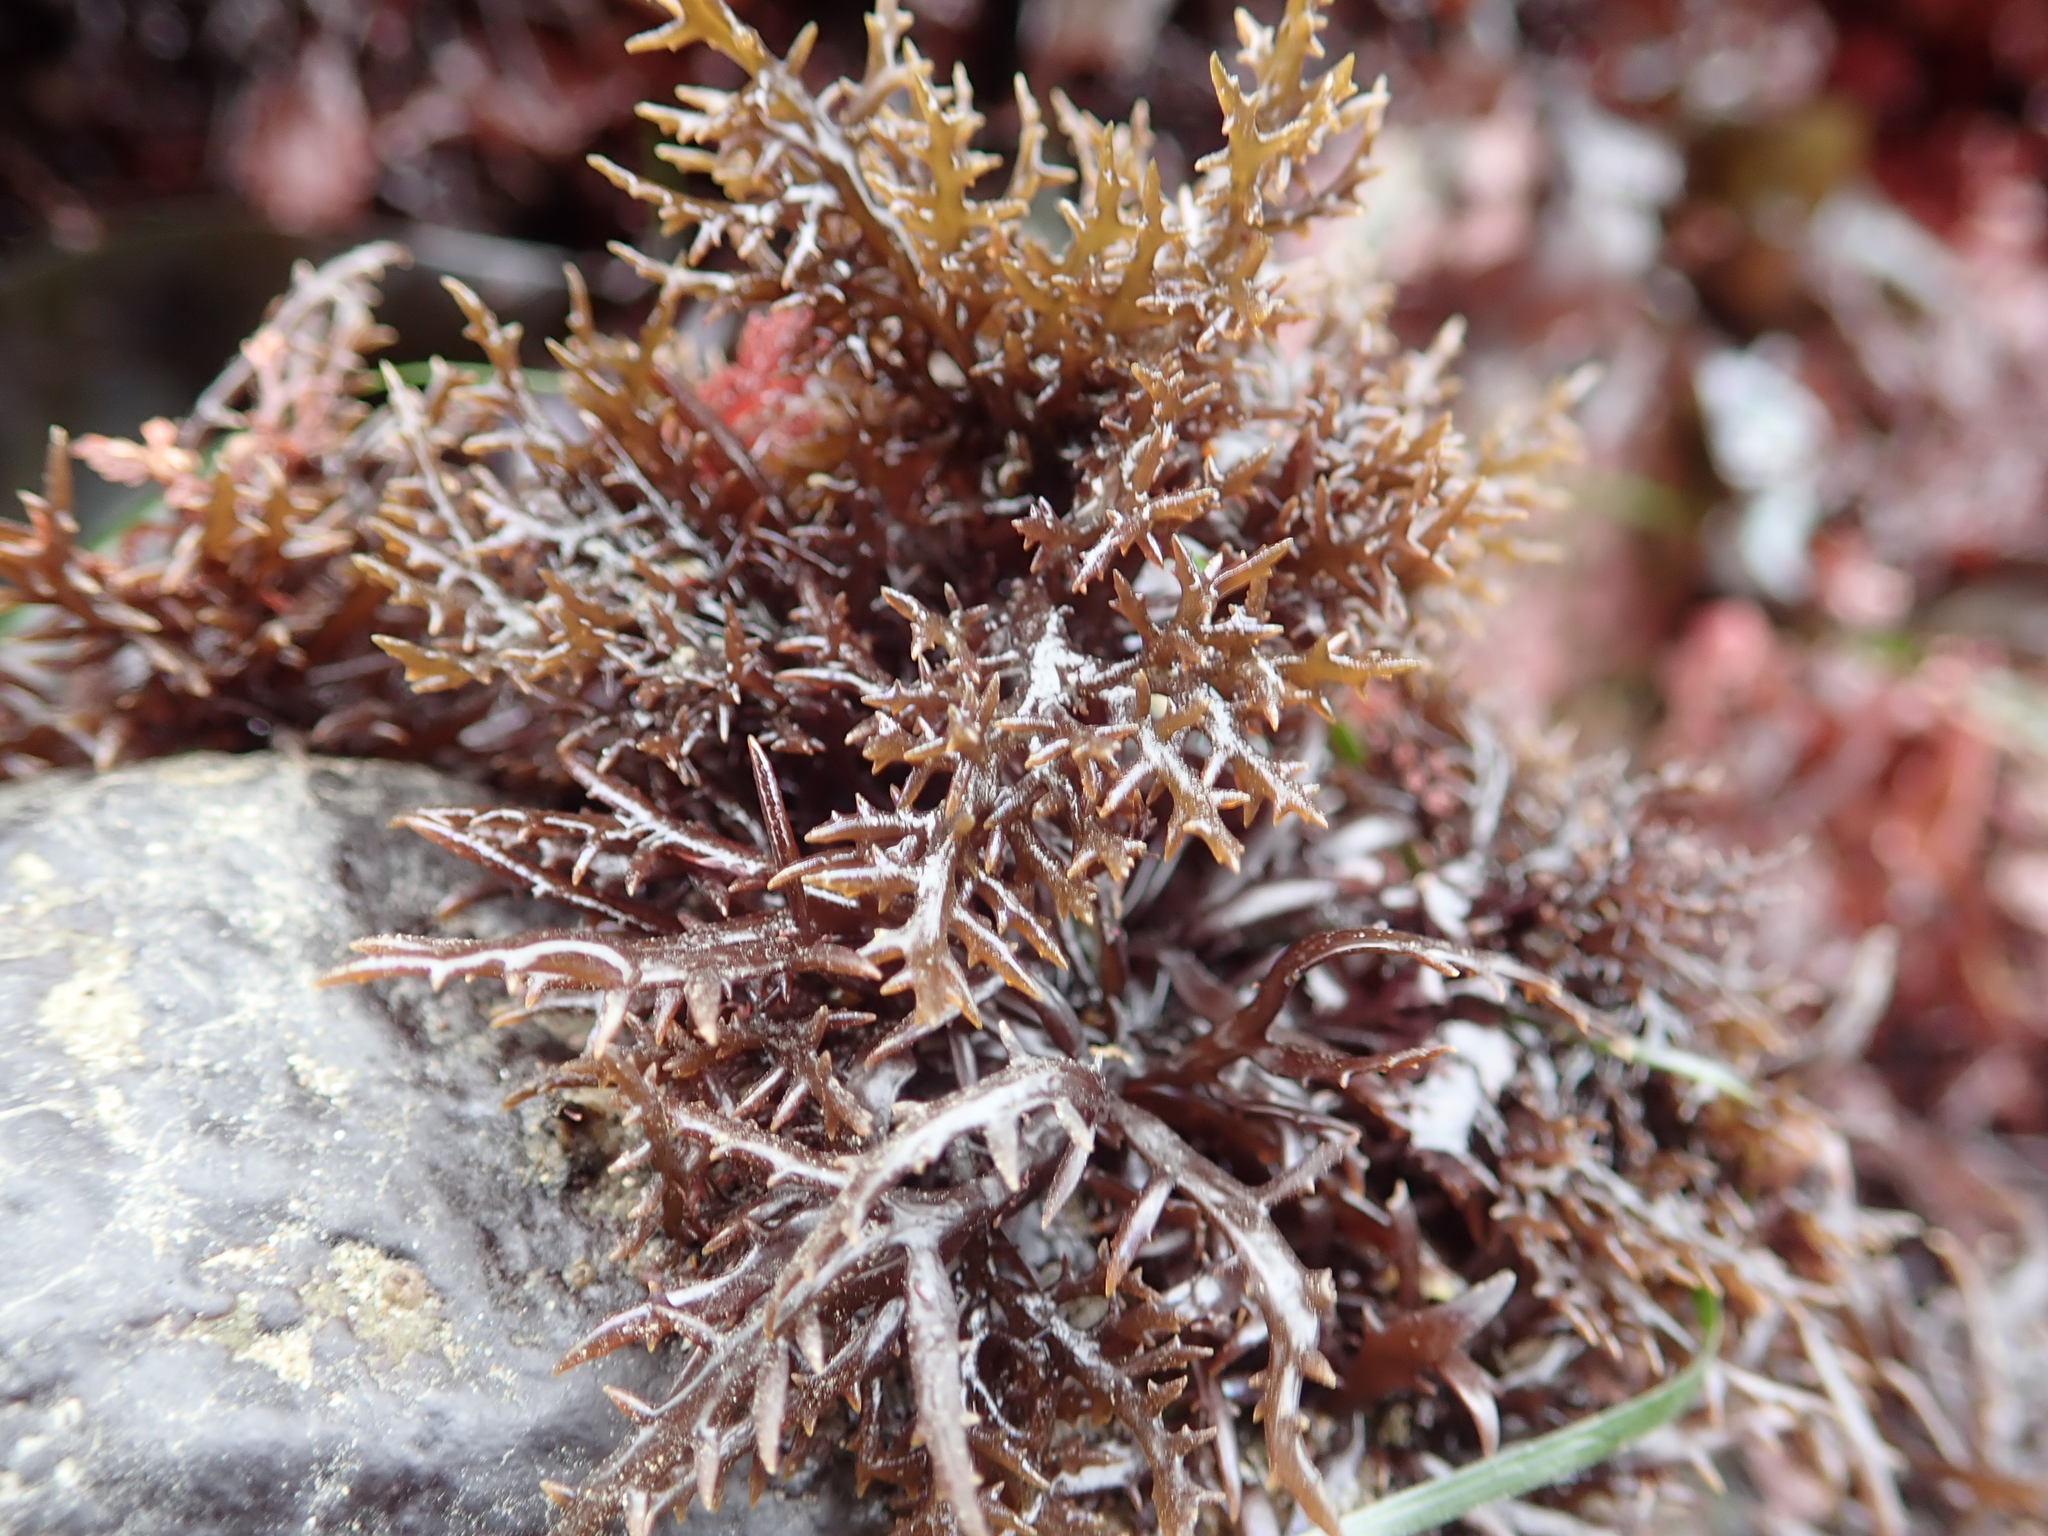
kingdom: Plantae
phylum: Rhodophyta
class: Florideophyceae
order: Gigartinales
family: Gigartinaceae
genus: Chondracanthus
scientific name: Chondracanthus canaliculatus
